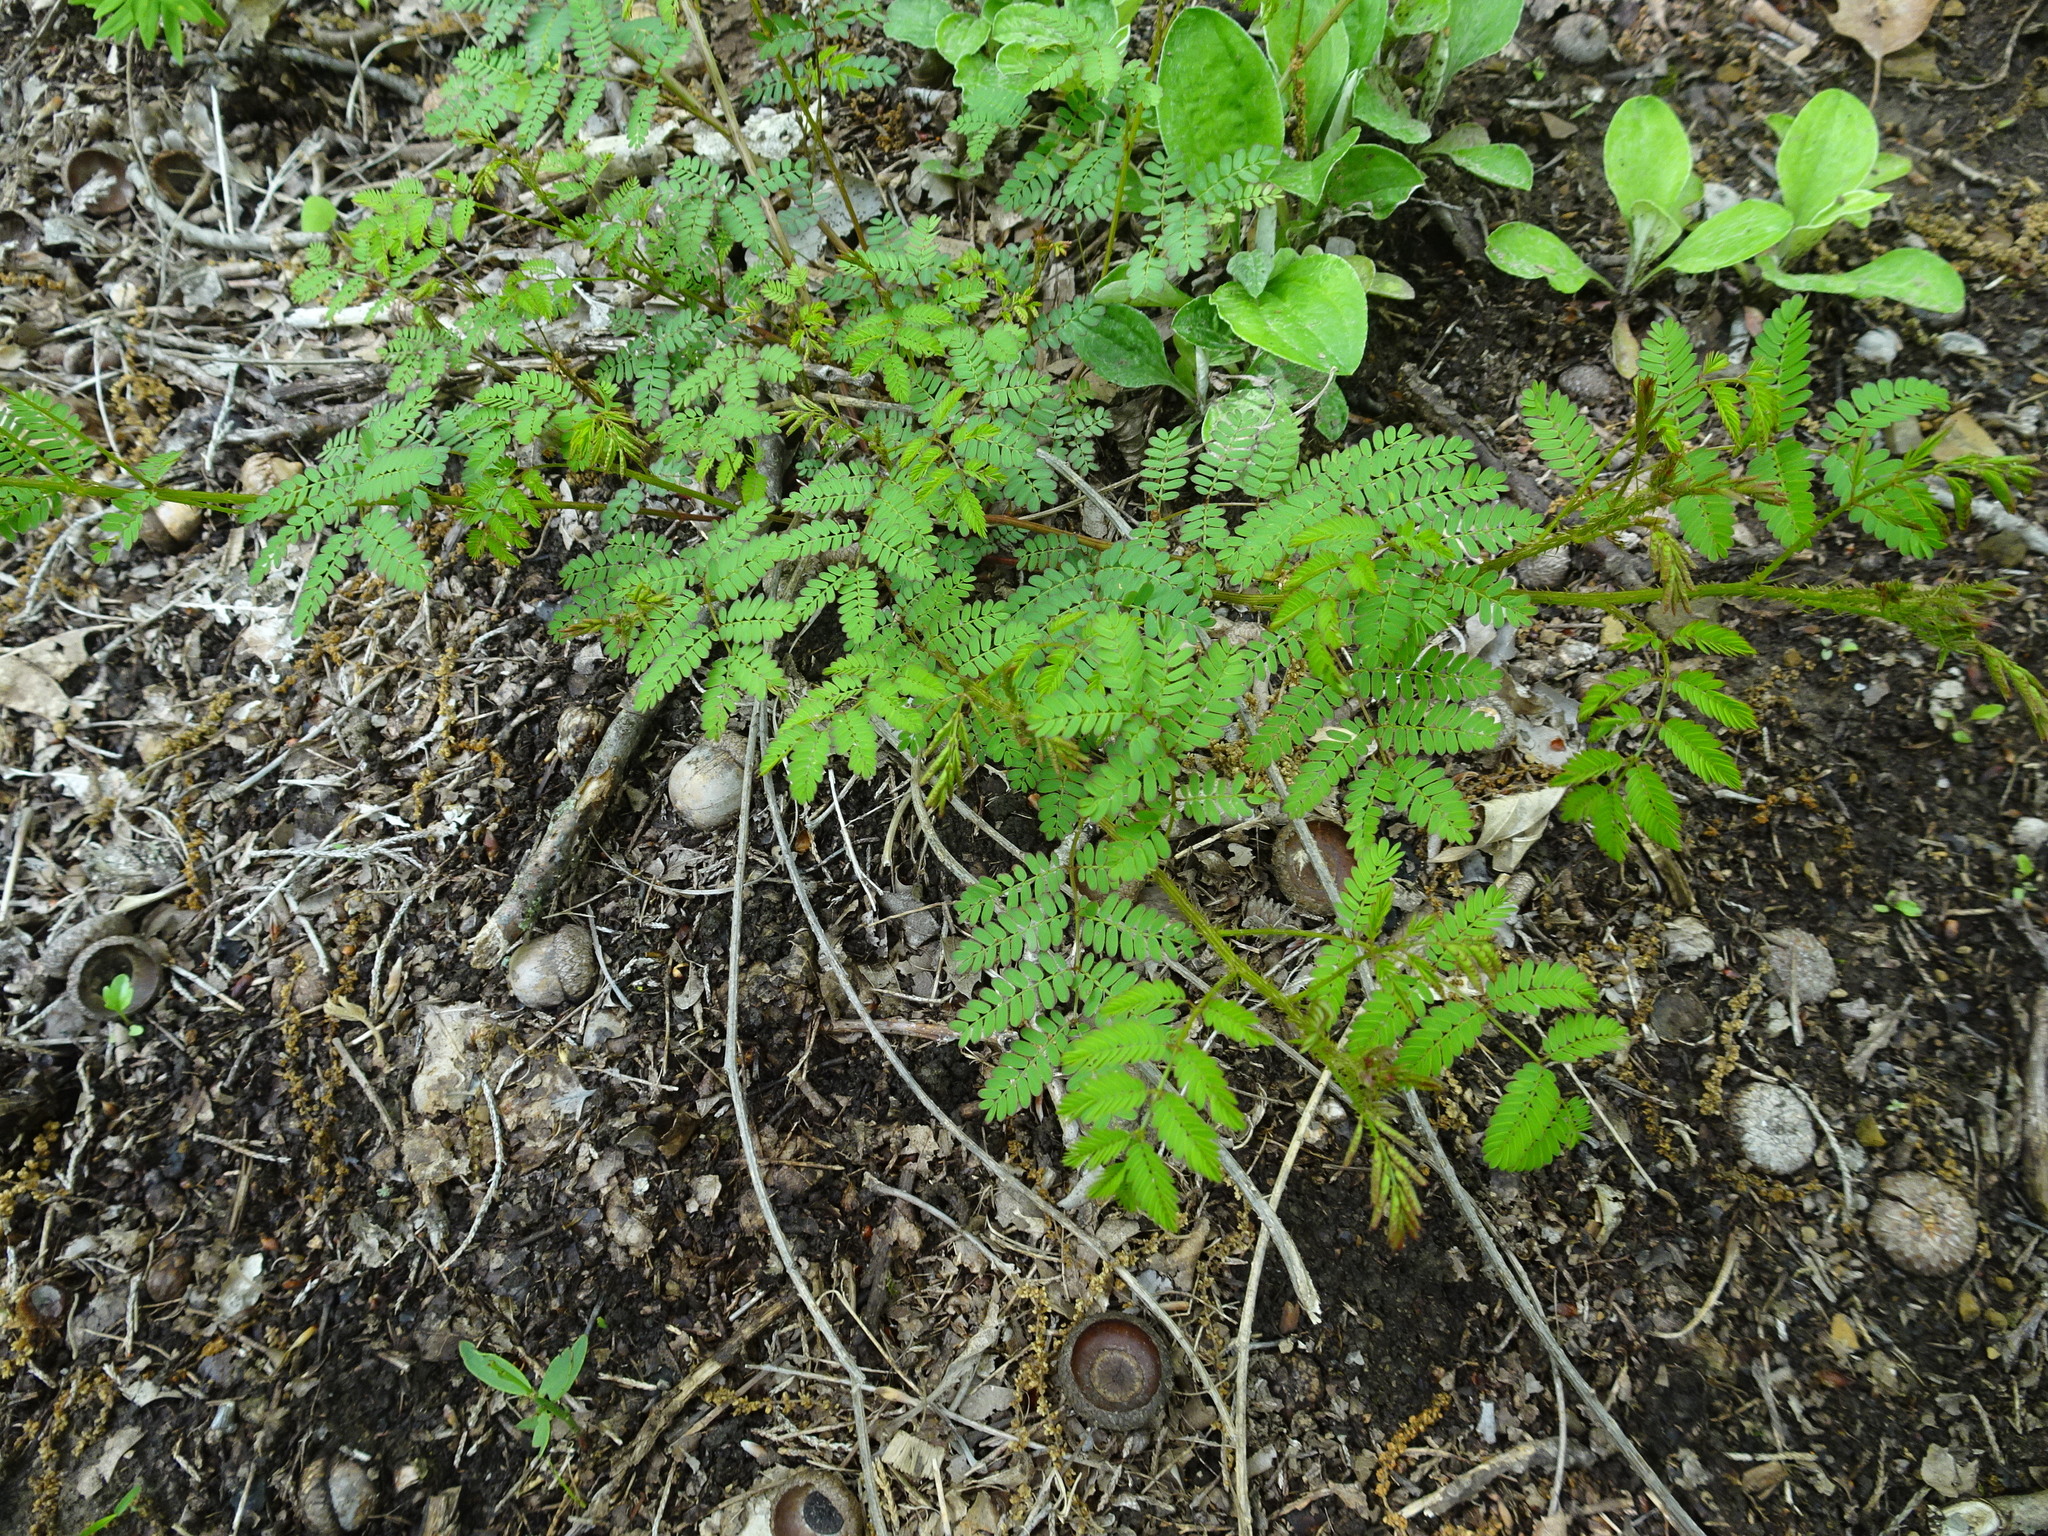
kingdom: Plantae
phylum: Tracheophyta
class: Magnoliopsida
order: Fabales
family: Fabaceae
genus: Mimosa
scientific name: Mimosa quadrivalvis
